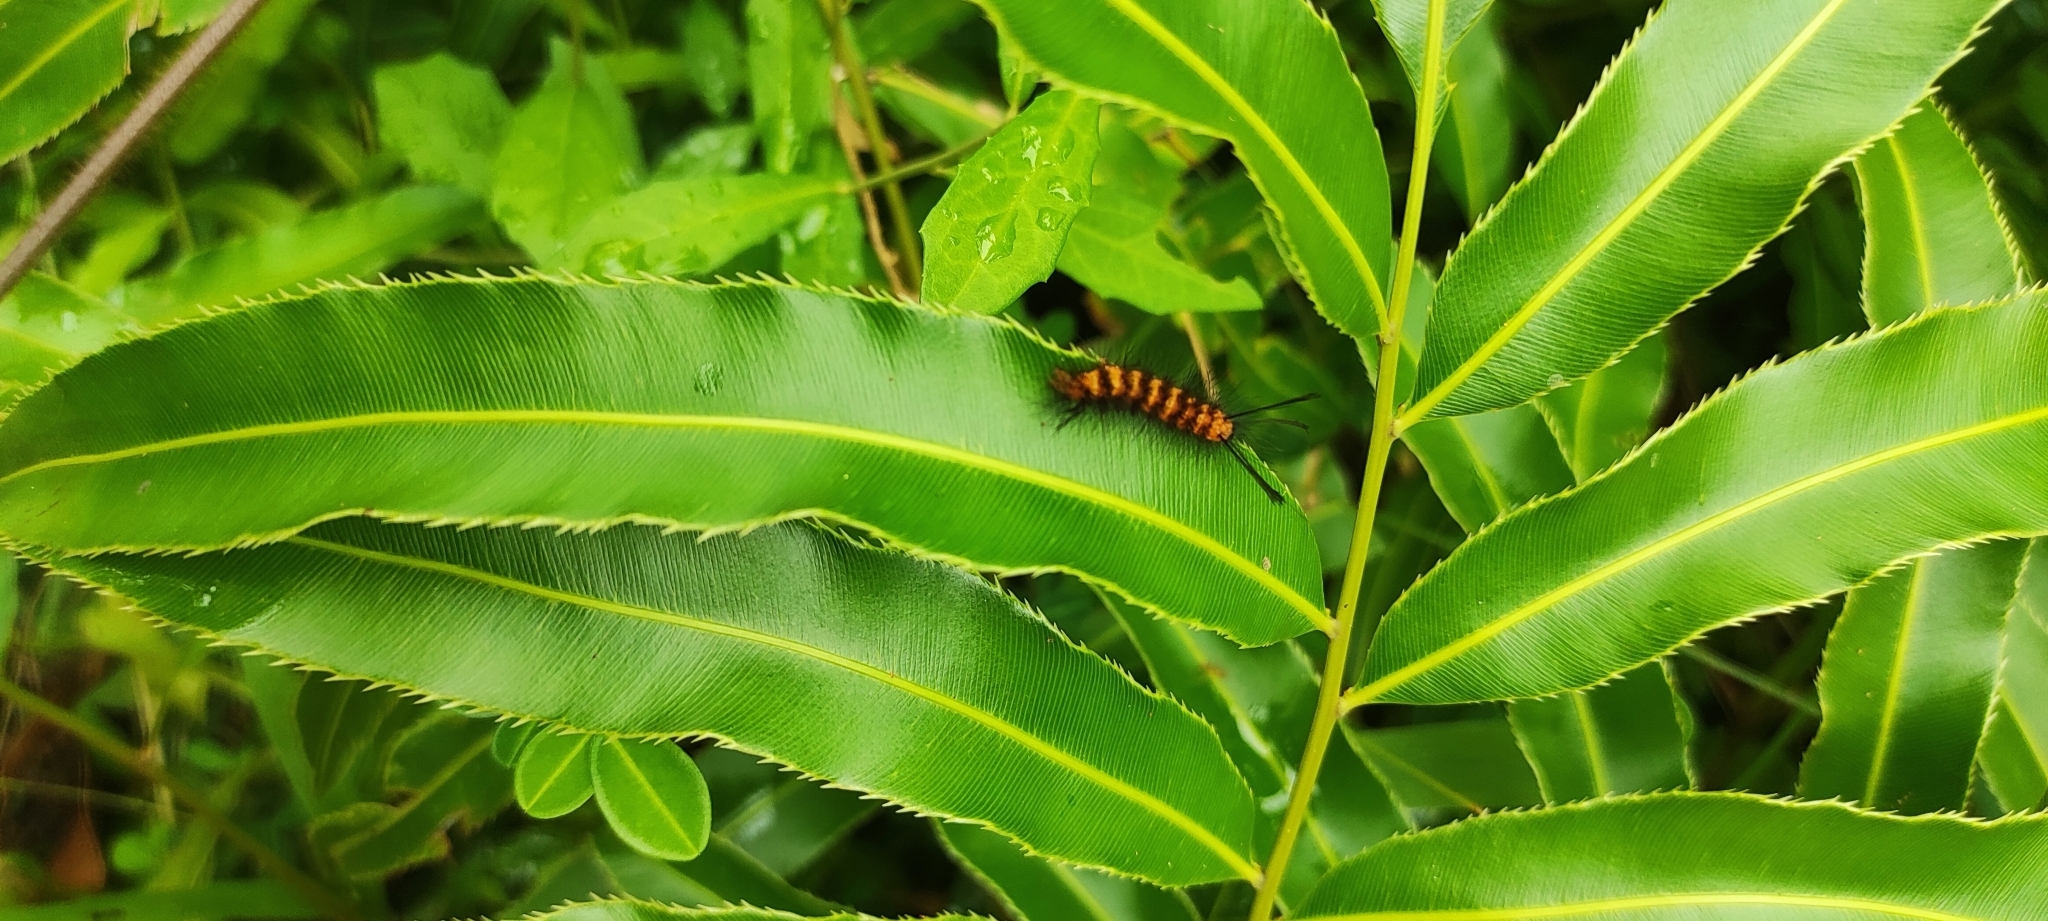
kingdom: Animalia
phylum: Arthropoda
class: Insecta
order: Lepidoptera
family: Erebidae
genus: Euchromia
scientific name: Euchromia polymena
